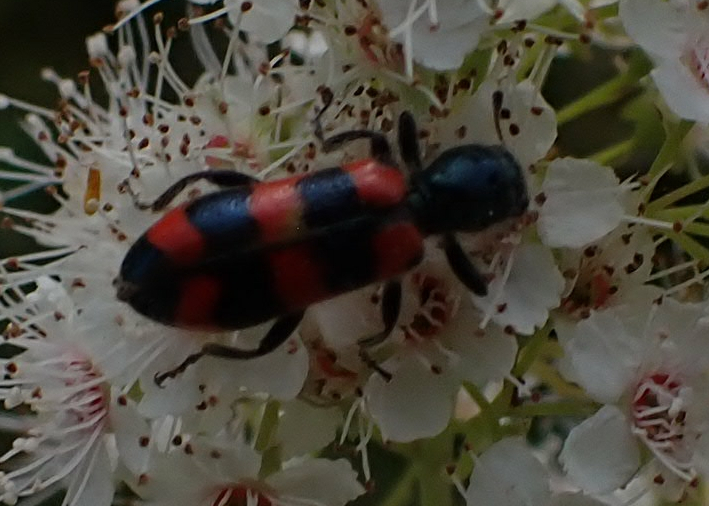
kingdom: Animalia
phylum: Arthropoda
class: Insecta
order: Coleoptera
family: Cleridae
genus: Trichodes
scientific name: Trichodes nutalli
